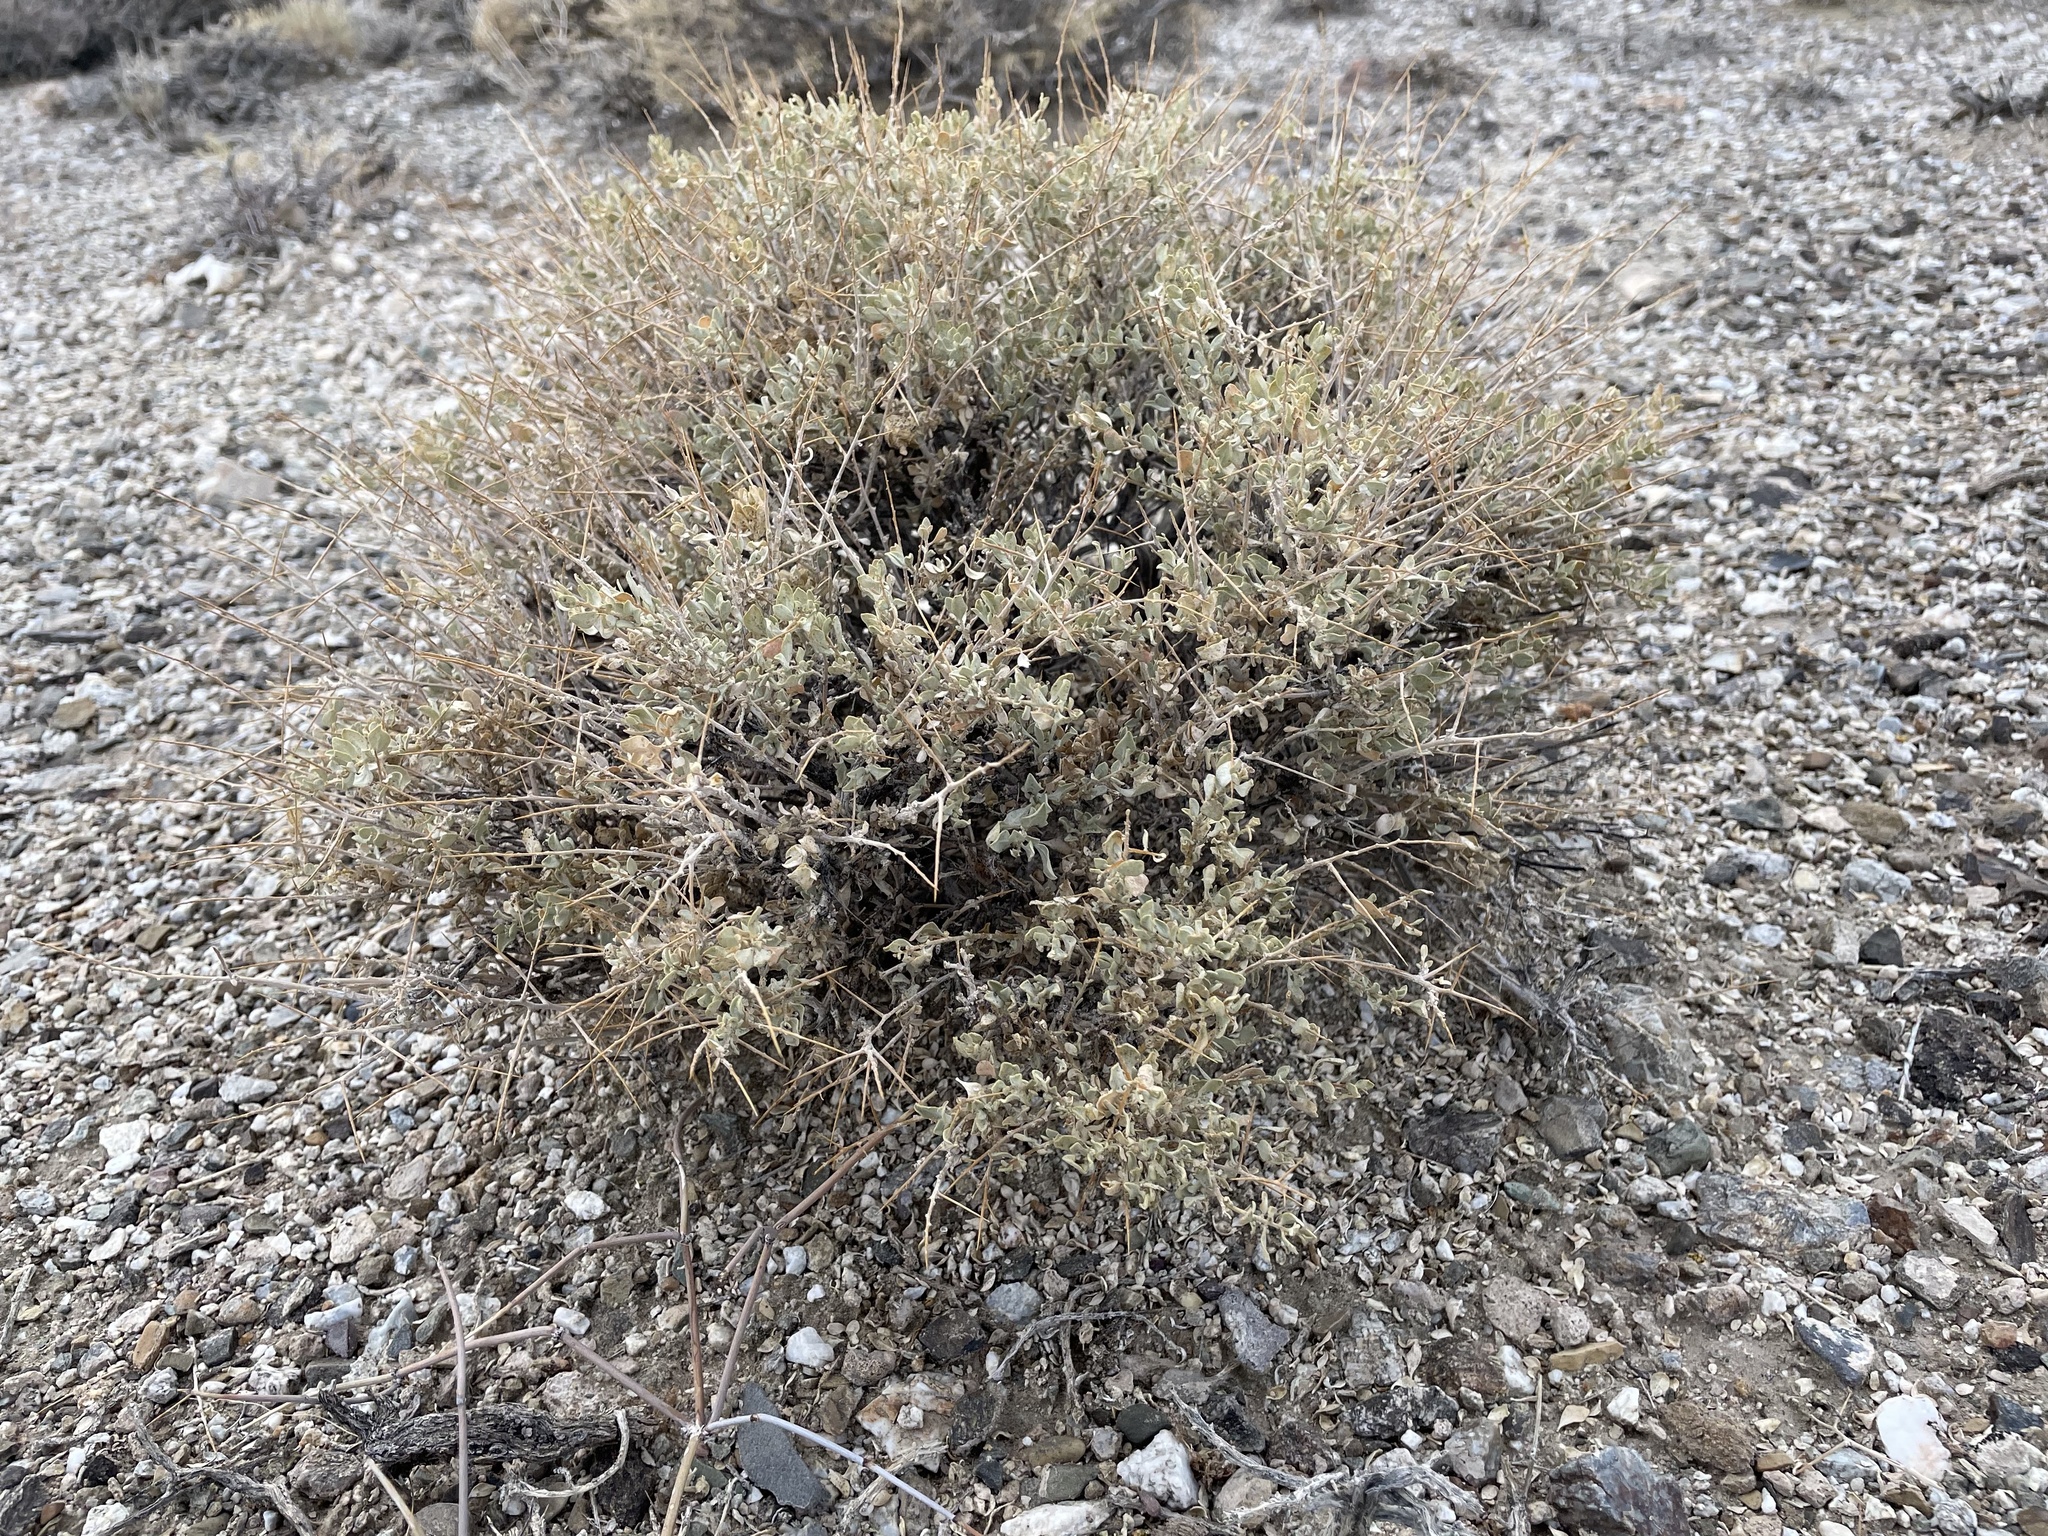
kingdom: Plantae
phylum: Tracheophyta
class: Magnoliopsida
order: Caryophyllales
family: Amaranthaceae
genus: Atriplex
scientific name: Atriplex confertifolia
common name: Shadscale
